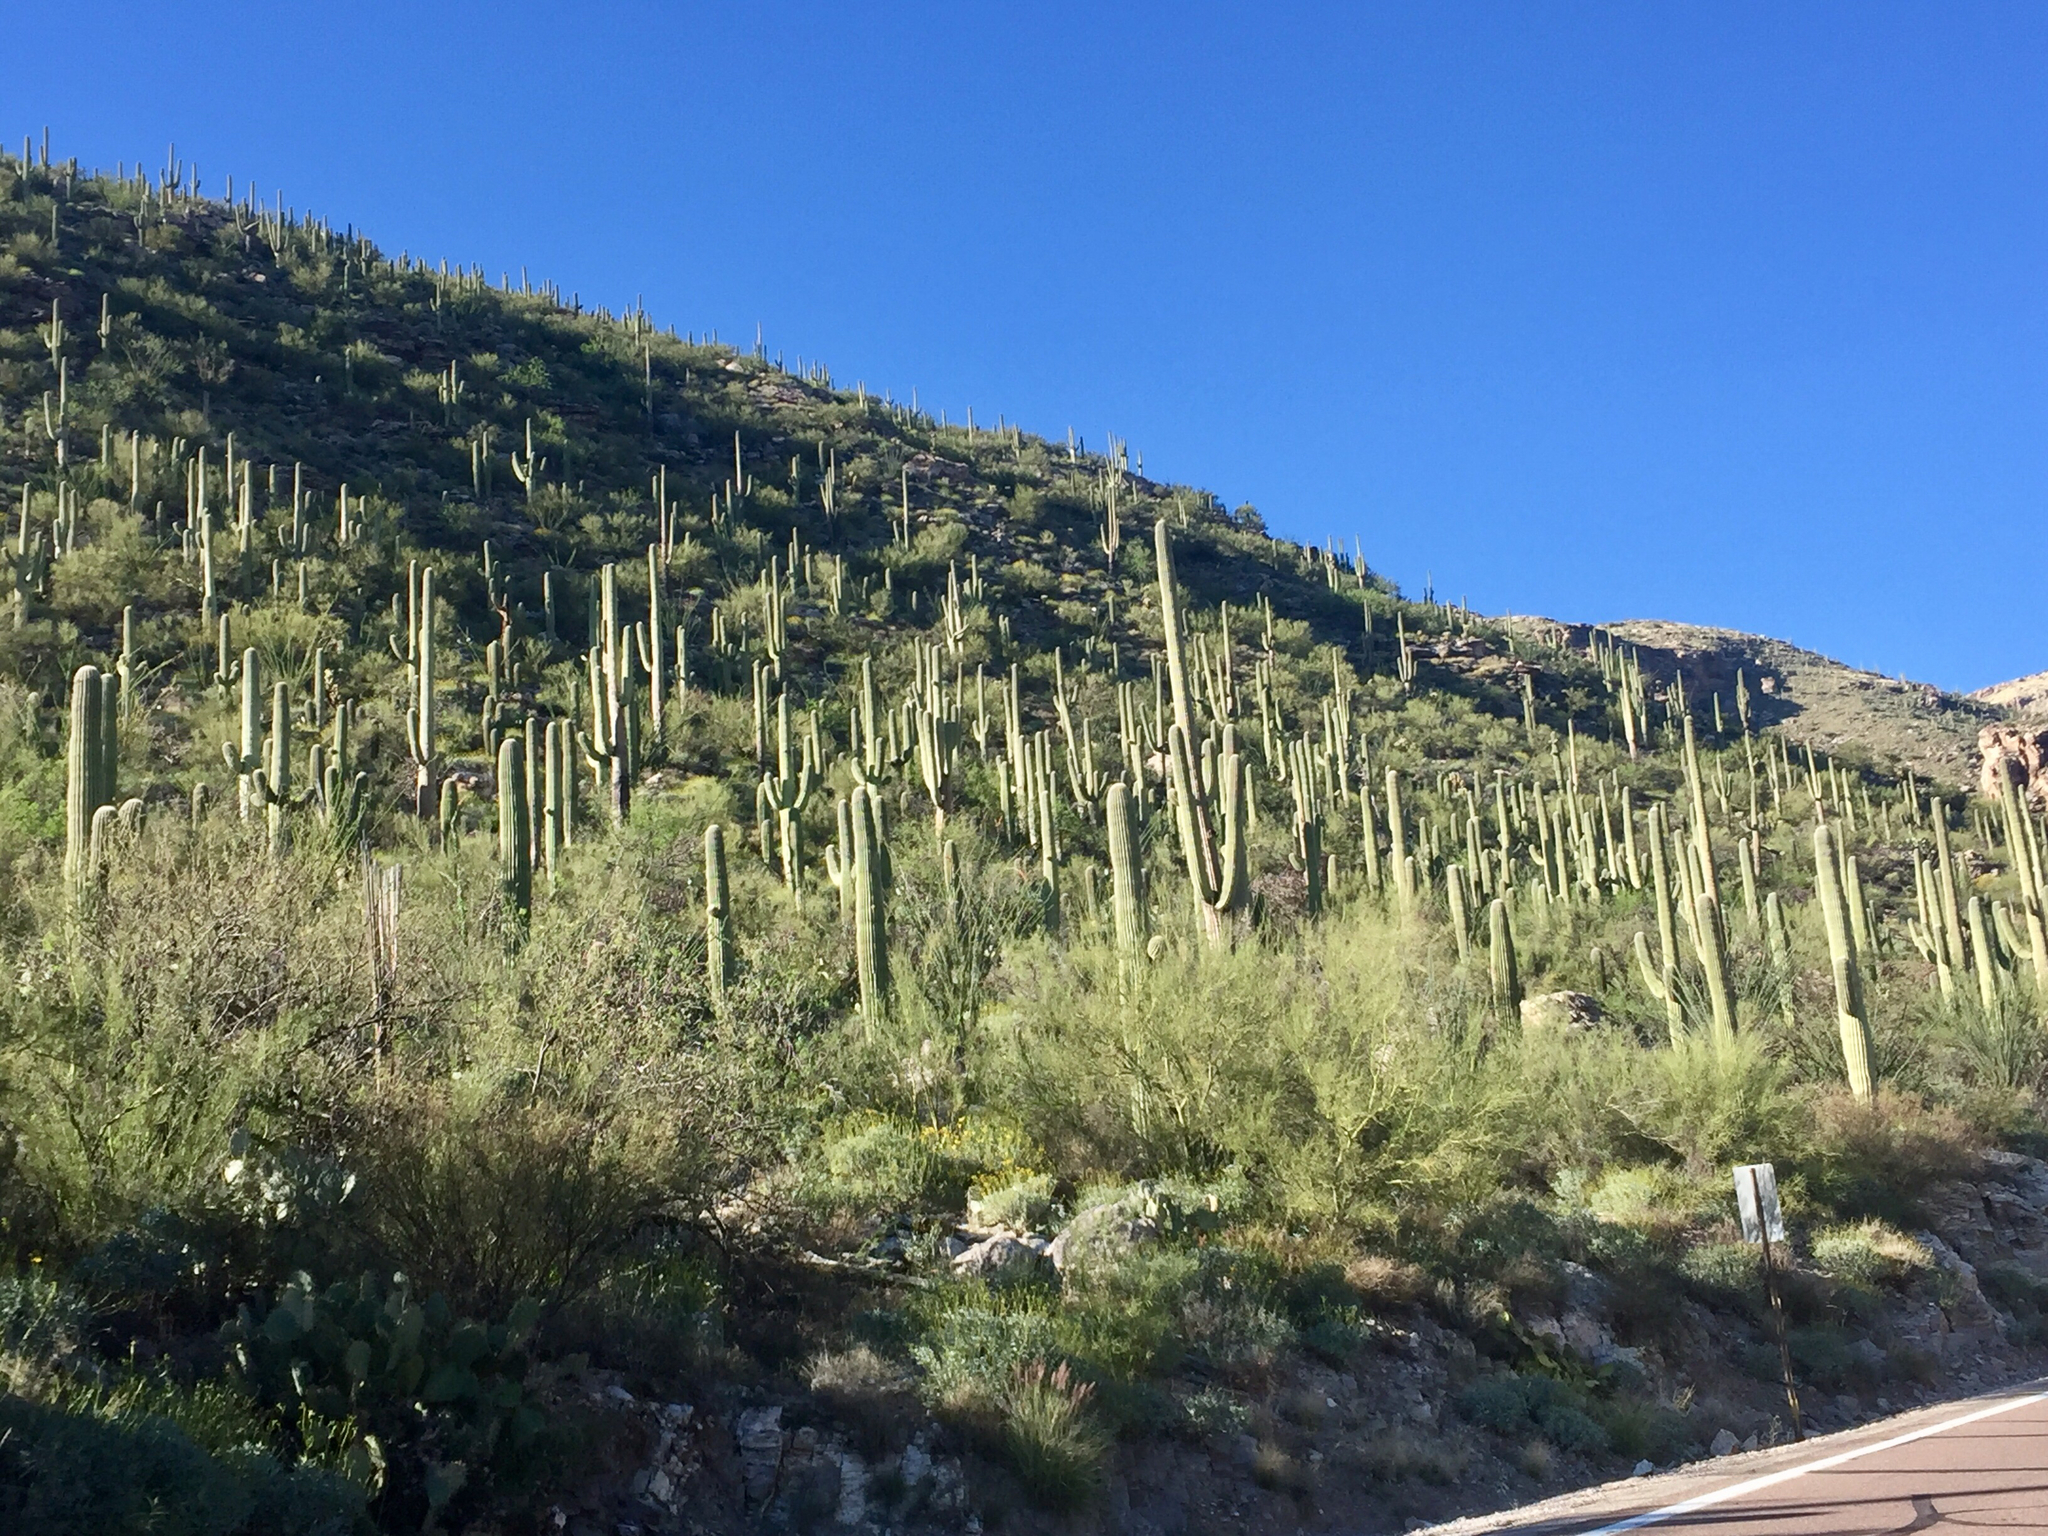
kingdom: Plantae
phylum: Tracheophyta
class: Magnoliopsida
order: Caryophyllales
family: Cactaceae
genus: Carnegiea
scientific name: Carnegiea gigantea
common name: Saguaro
